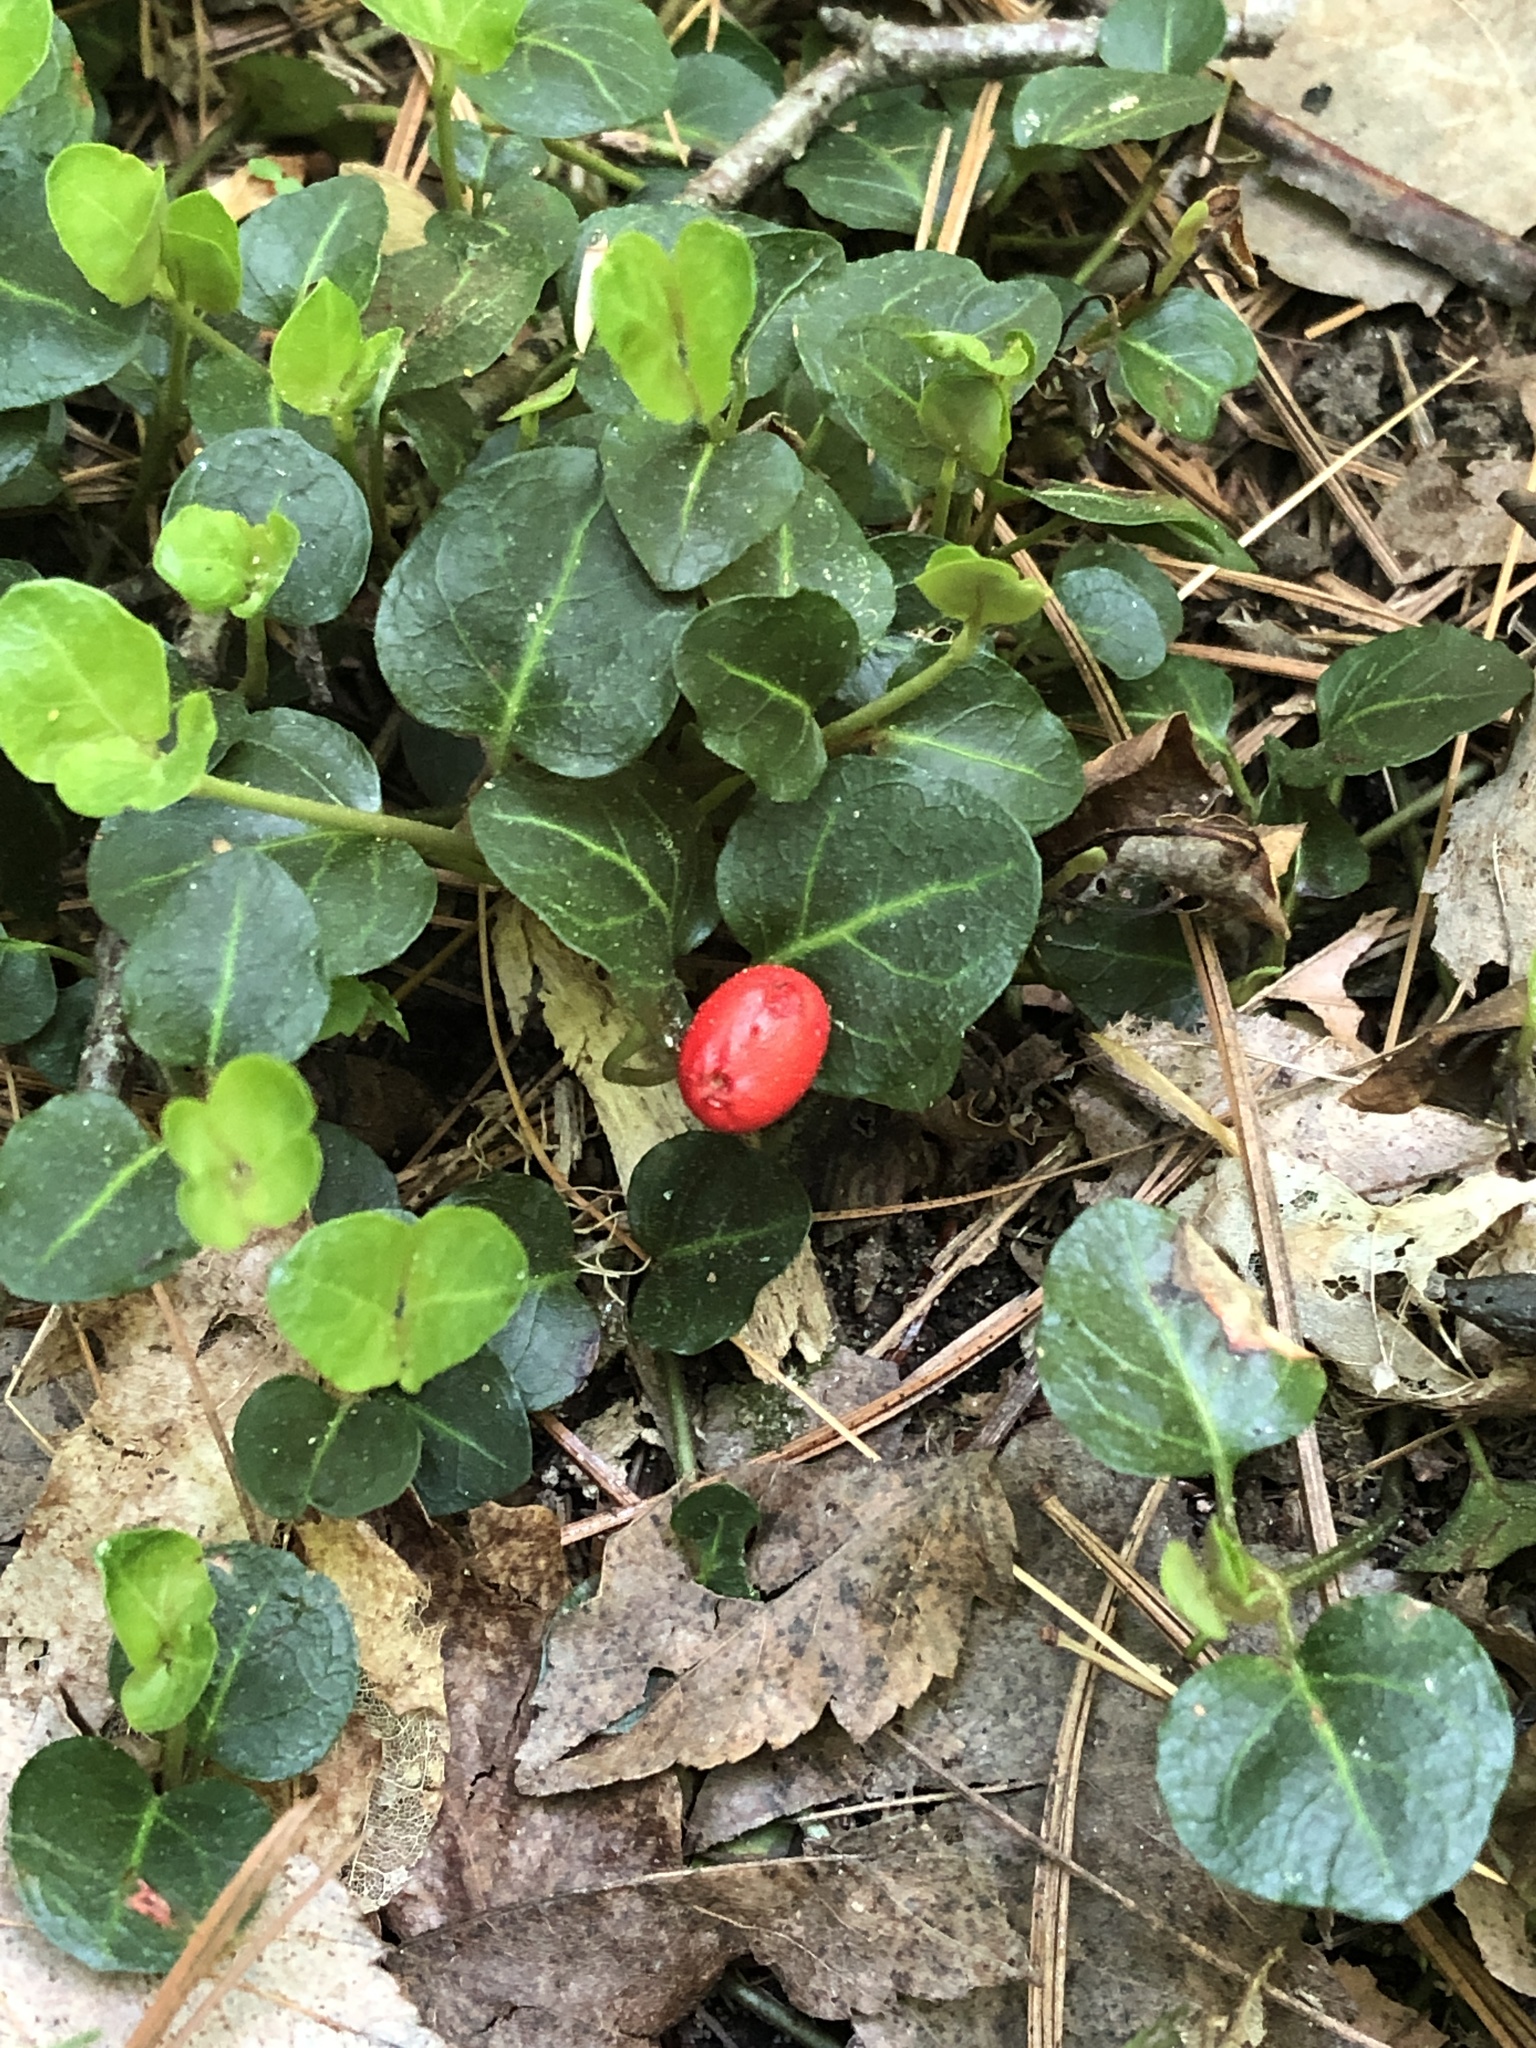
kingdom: Plantae
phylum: Tracheophyta
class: Magnoliopsida
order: Gentianales
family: Rubiaceae
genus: Mitchella
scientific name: Mitchella repens
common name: Partridge-berry
